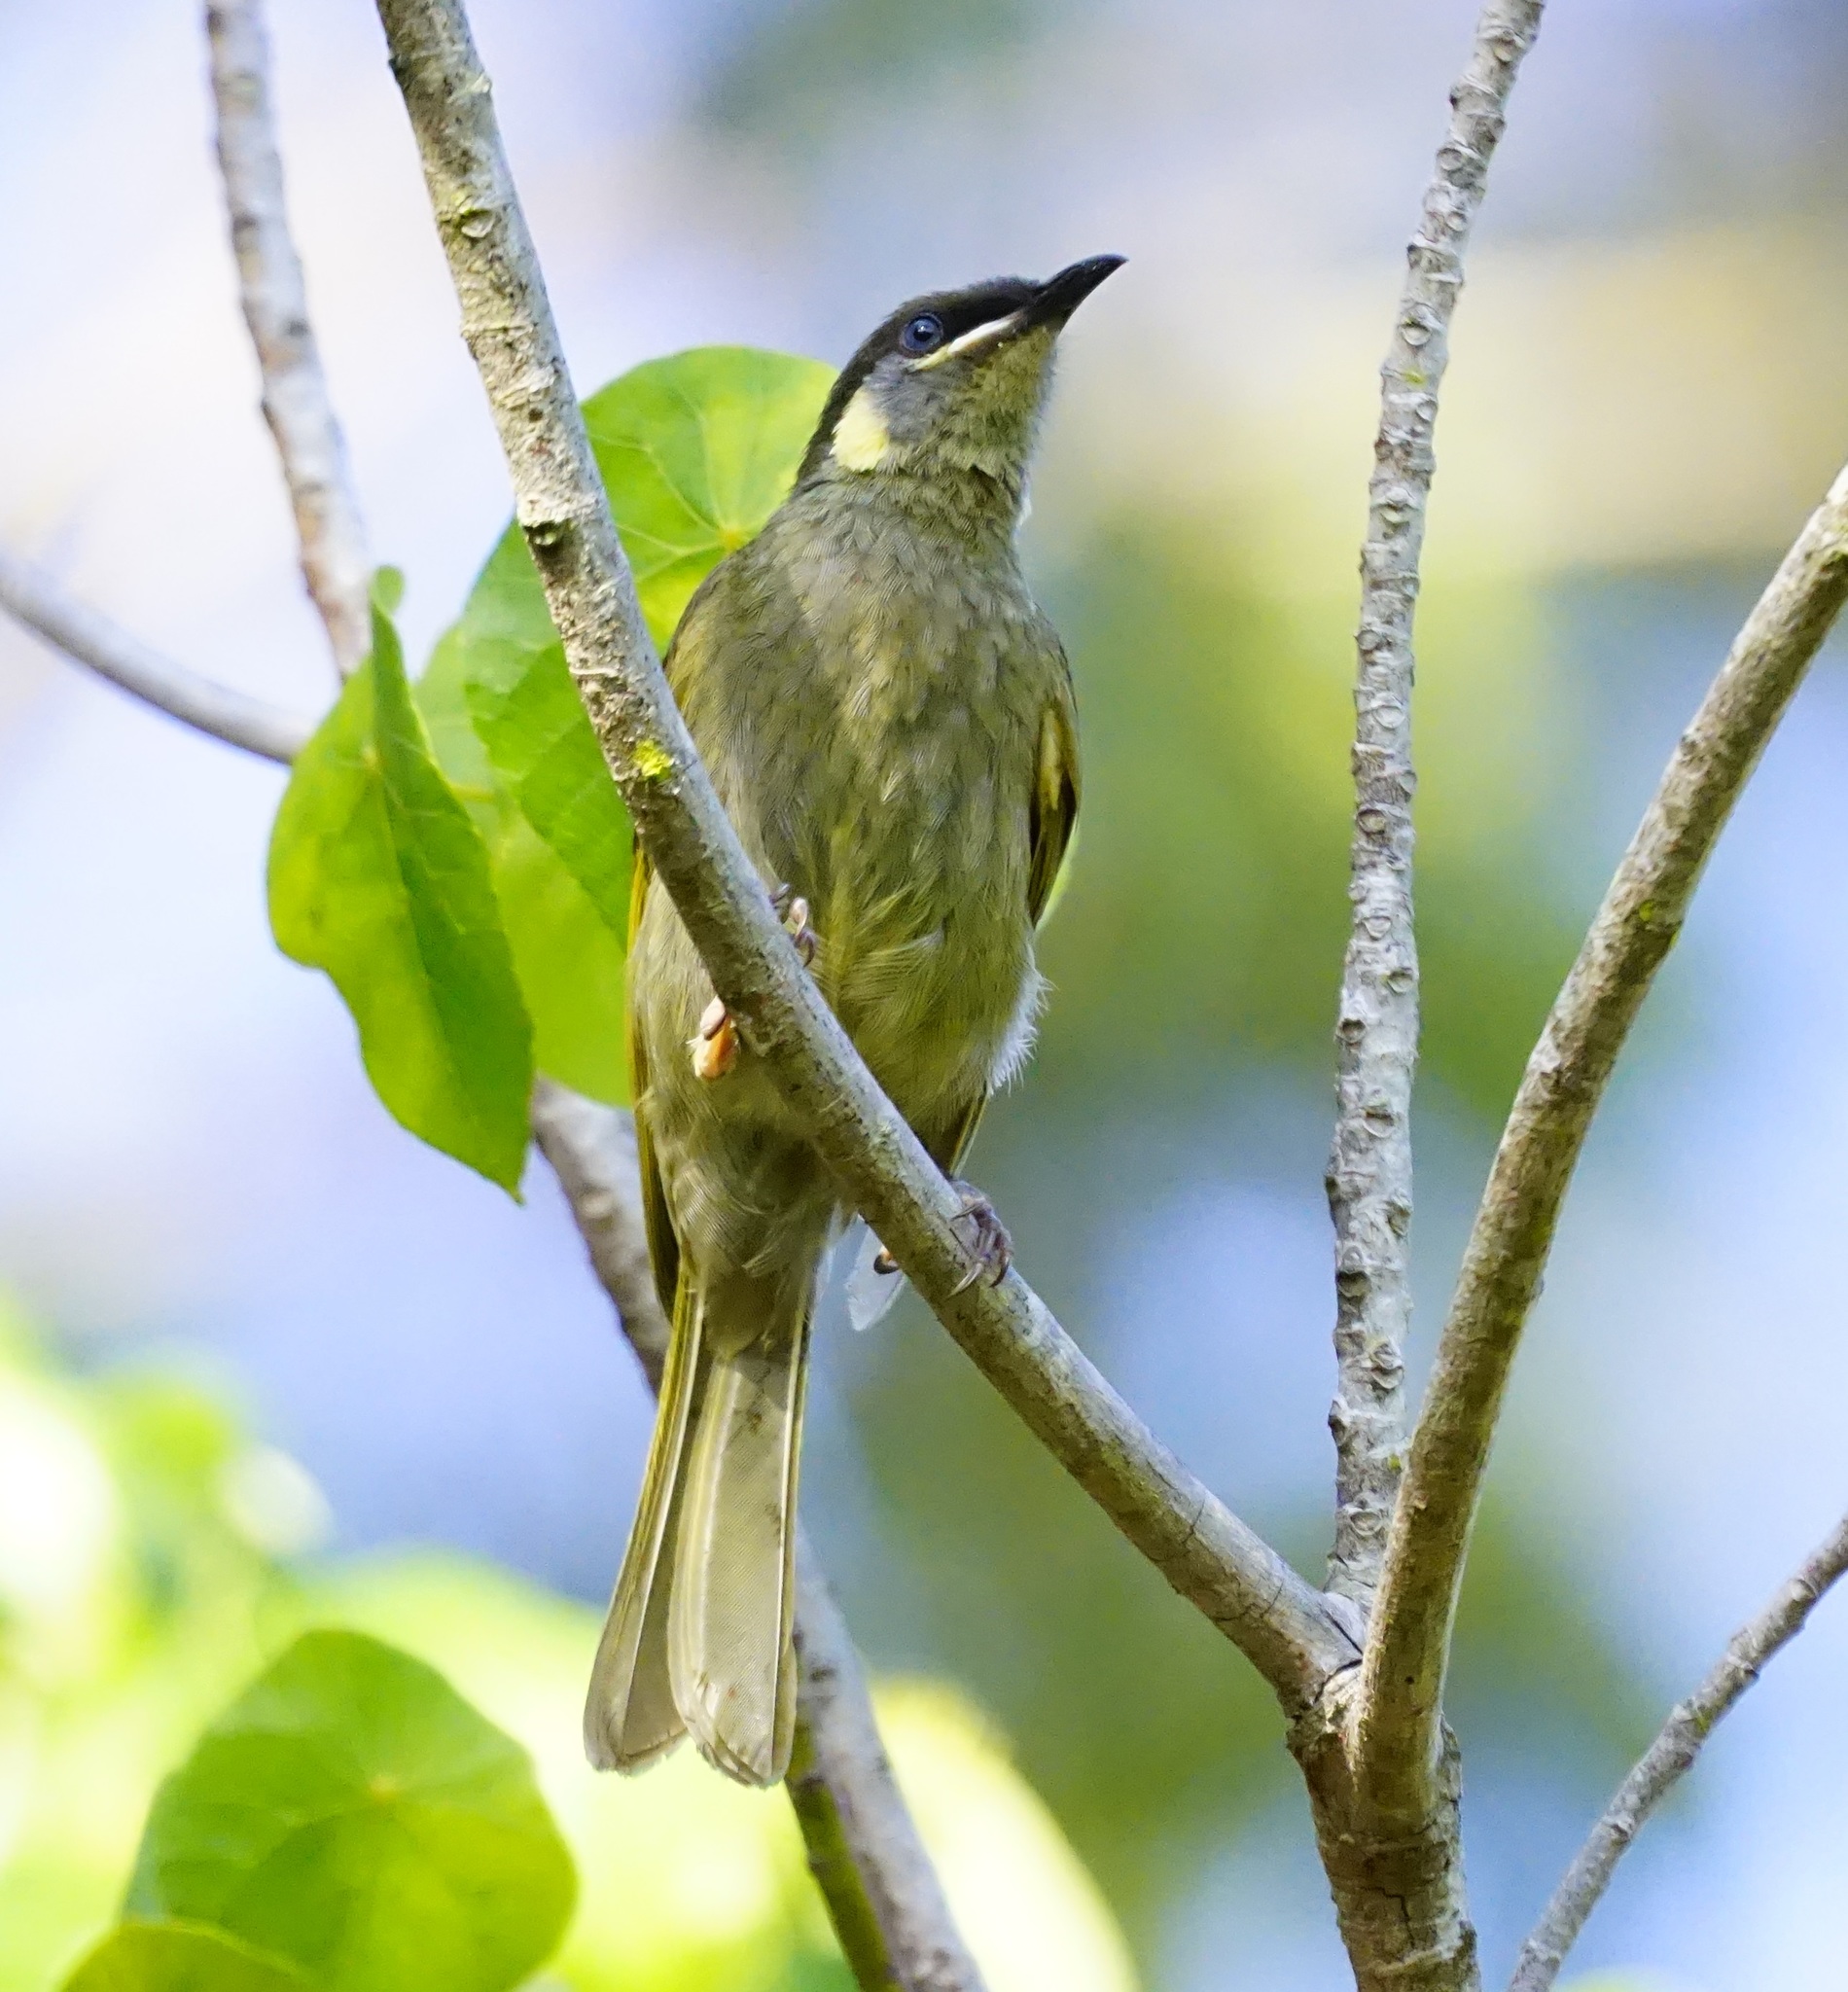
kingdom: Animalia
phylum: Chordata
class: Aves
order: Passeriformes
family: Meliphagidae
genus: Meliphaga
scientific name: Meliphaga lewinii
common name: Lewin's honeyeater
